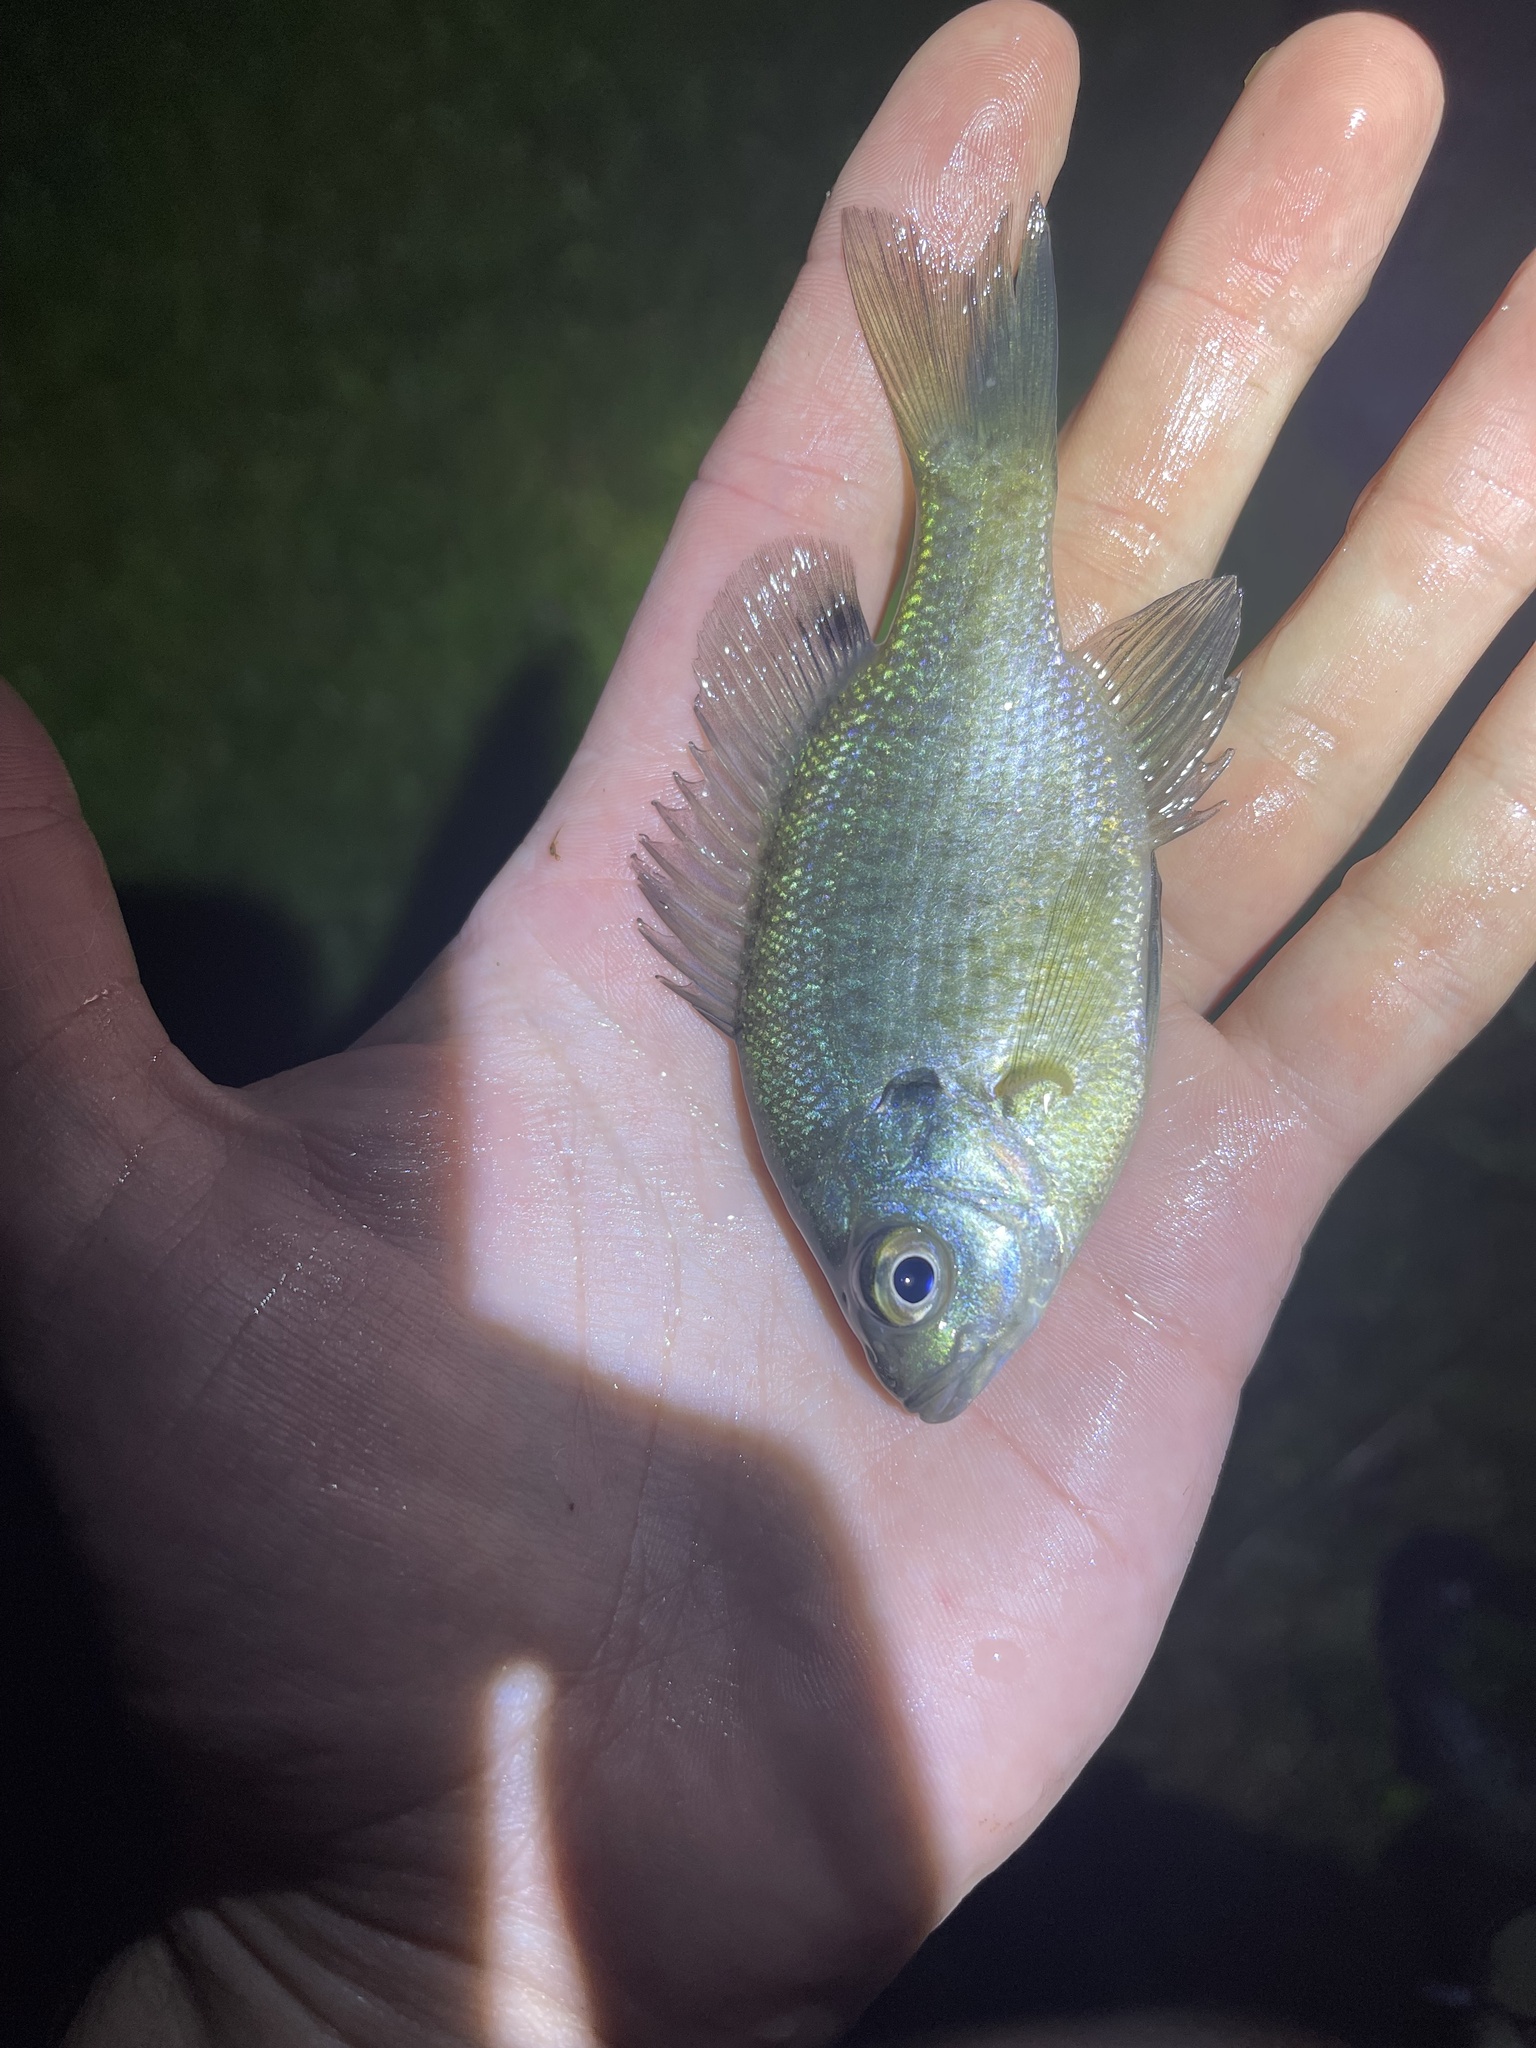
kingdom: Animalia
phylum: Chordata
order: Perciformes
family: Centrarchidae
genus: Lepomis
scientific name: Lepomis macrochirus
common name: Bluegill
